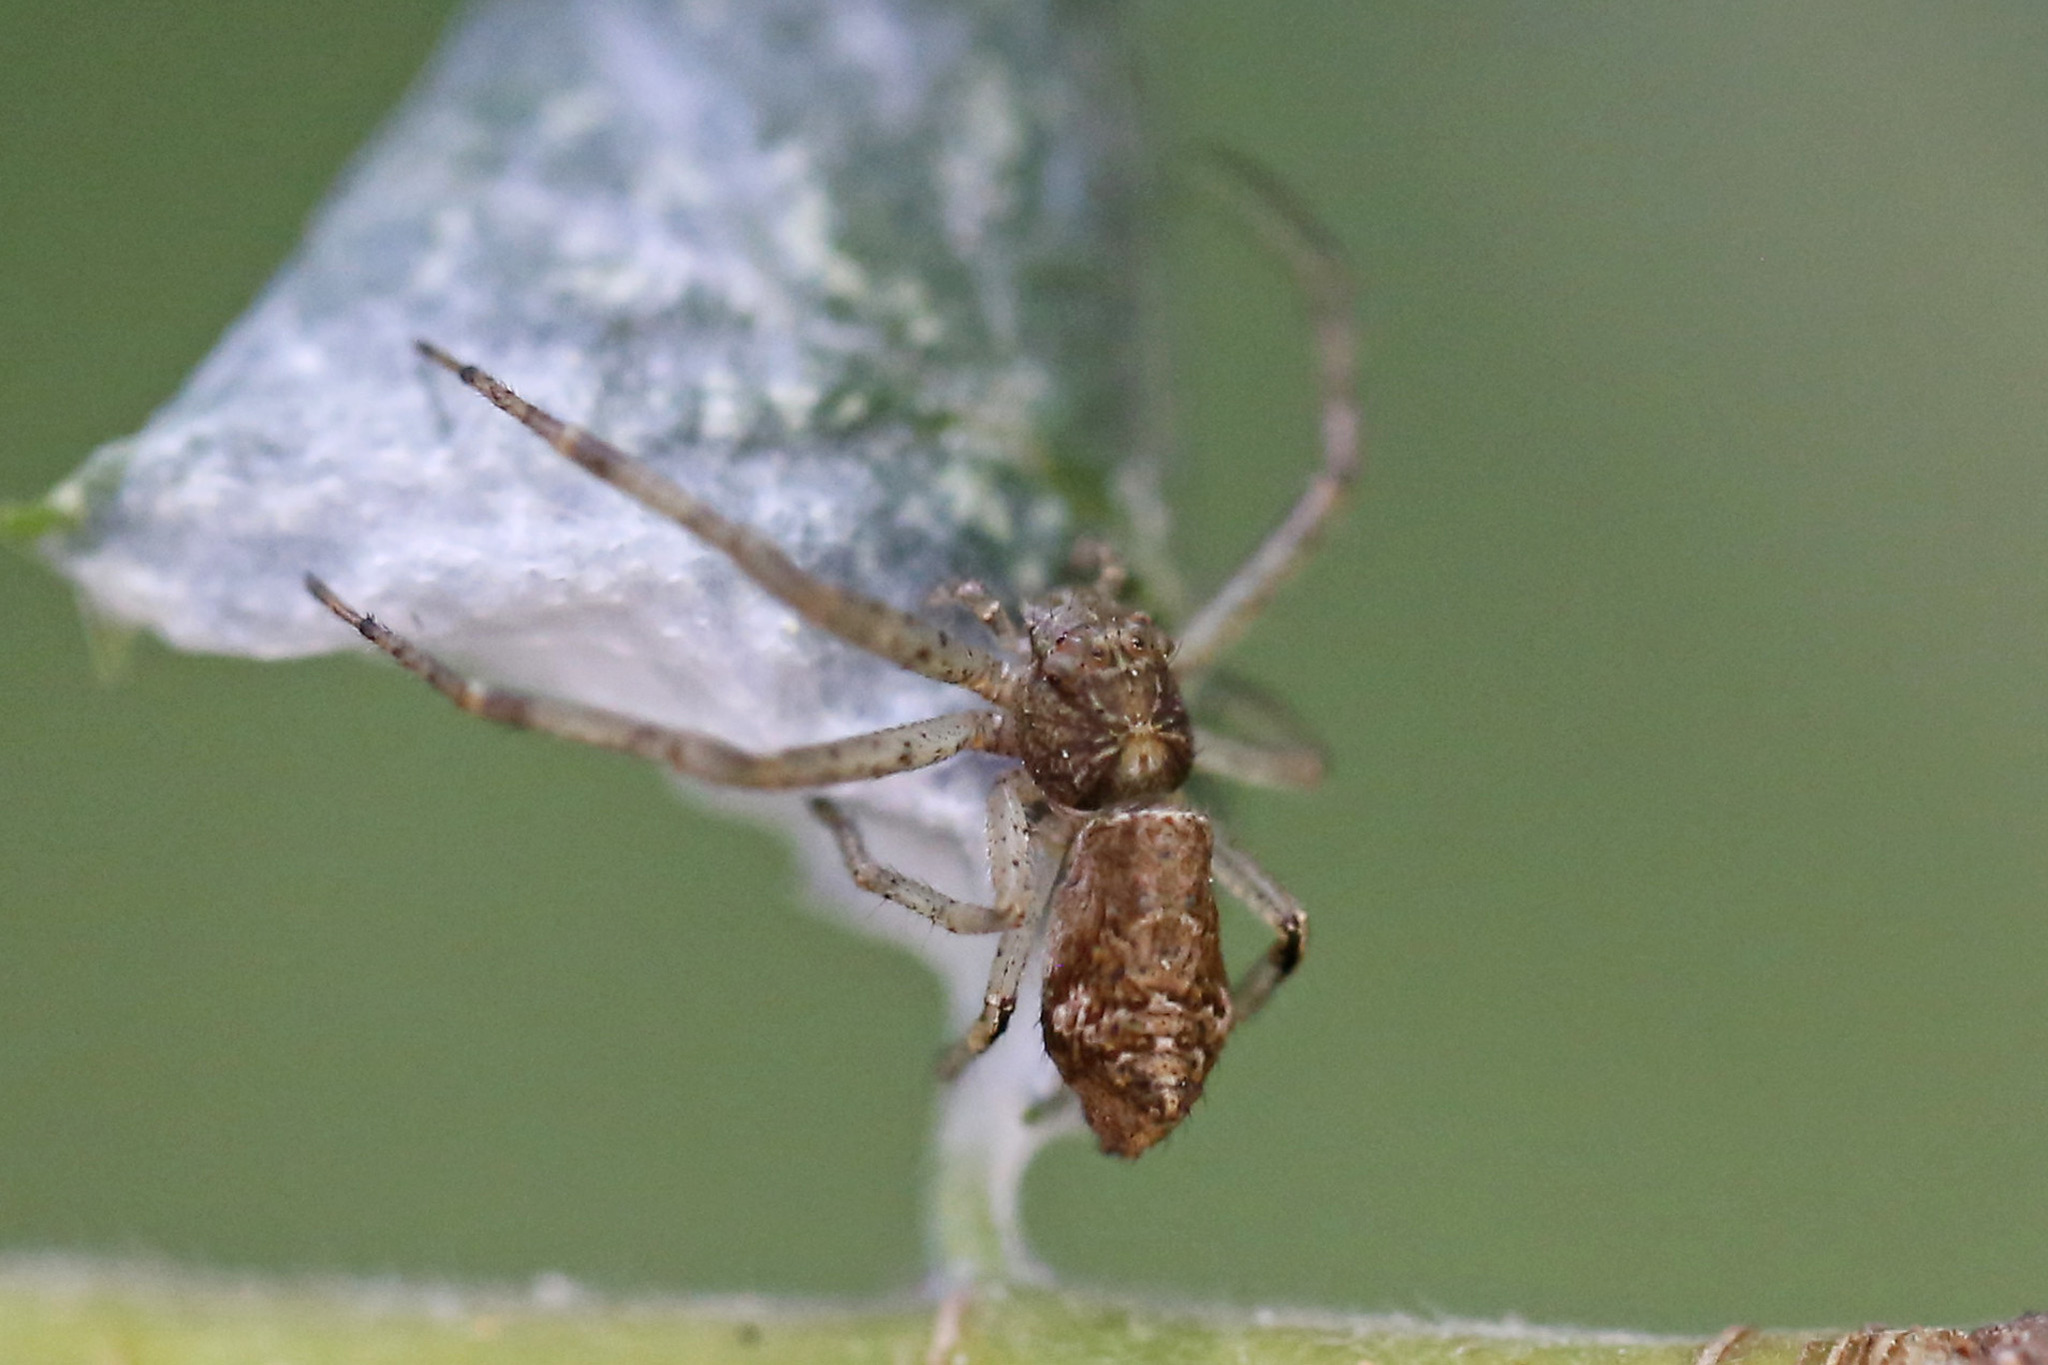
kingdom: Animalia
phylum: Arthropoda
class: Arachnida
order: Araneae
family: Thomisidae
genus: Tmarus
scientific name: Tmarus angulatus
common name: Tuberculated crab spider
